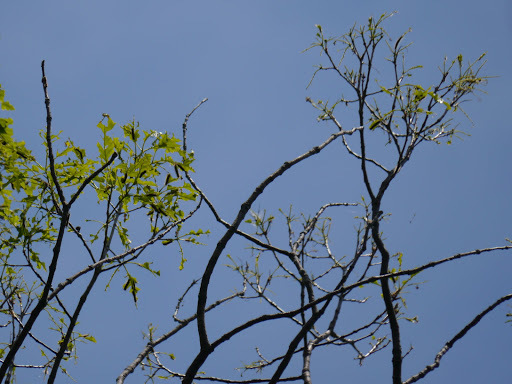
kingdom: Animalia
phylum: Arthropoda
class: Insecta
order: Lepidoptera
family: Erebidae
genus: Lymantria
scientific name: Lymantria dispar
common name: Gypsy moth
